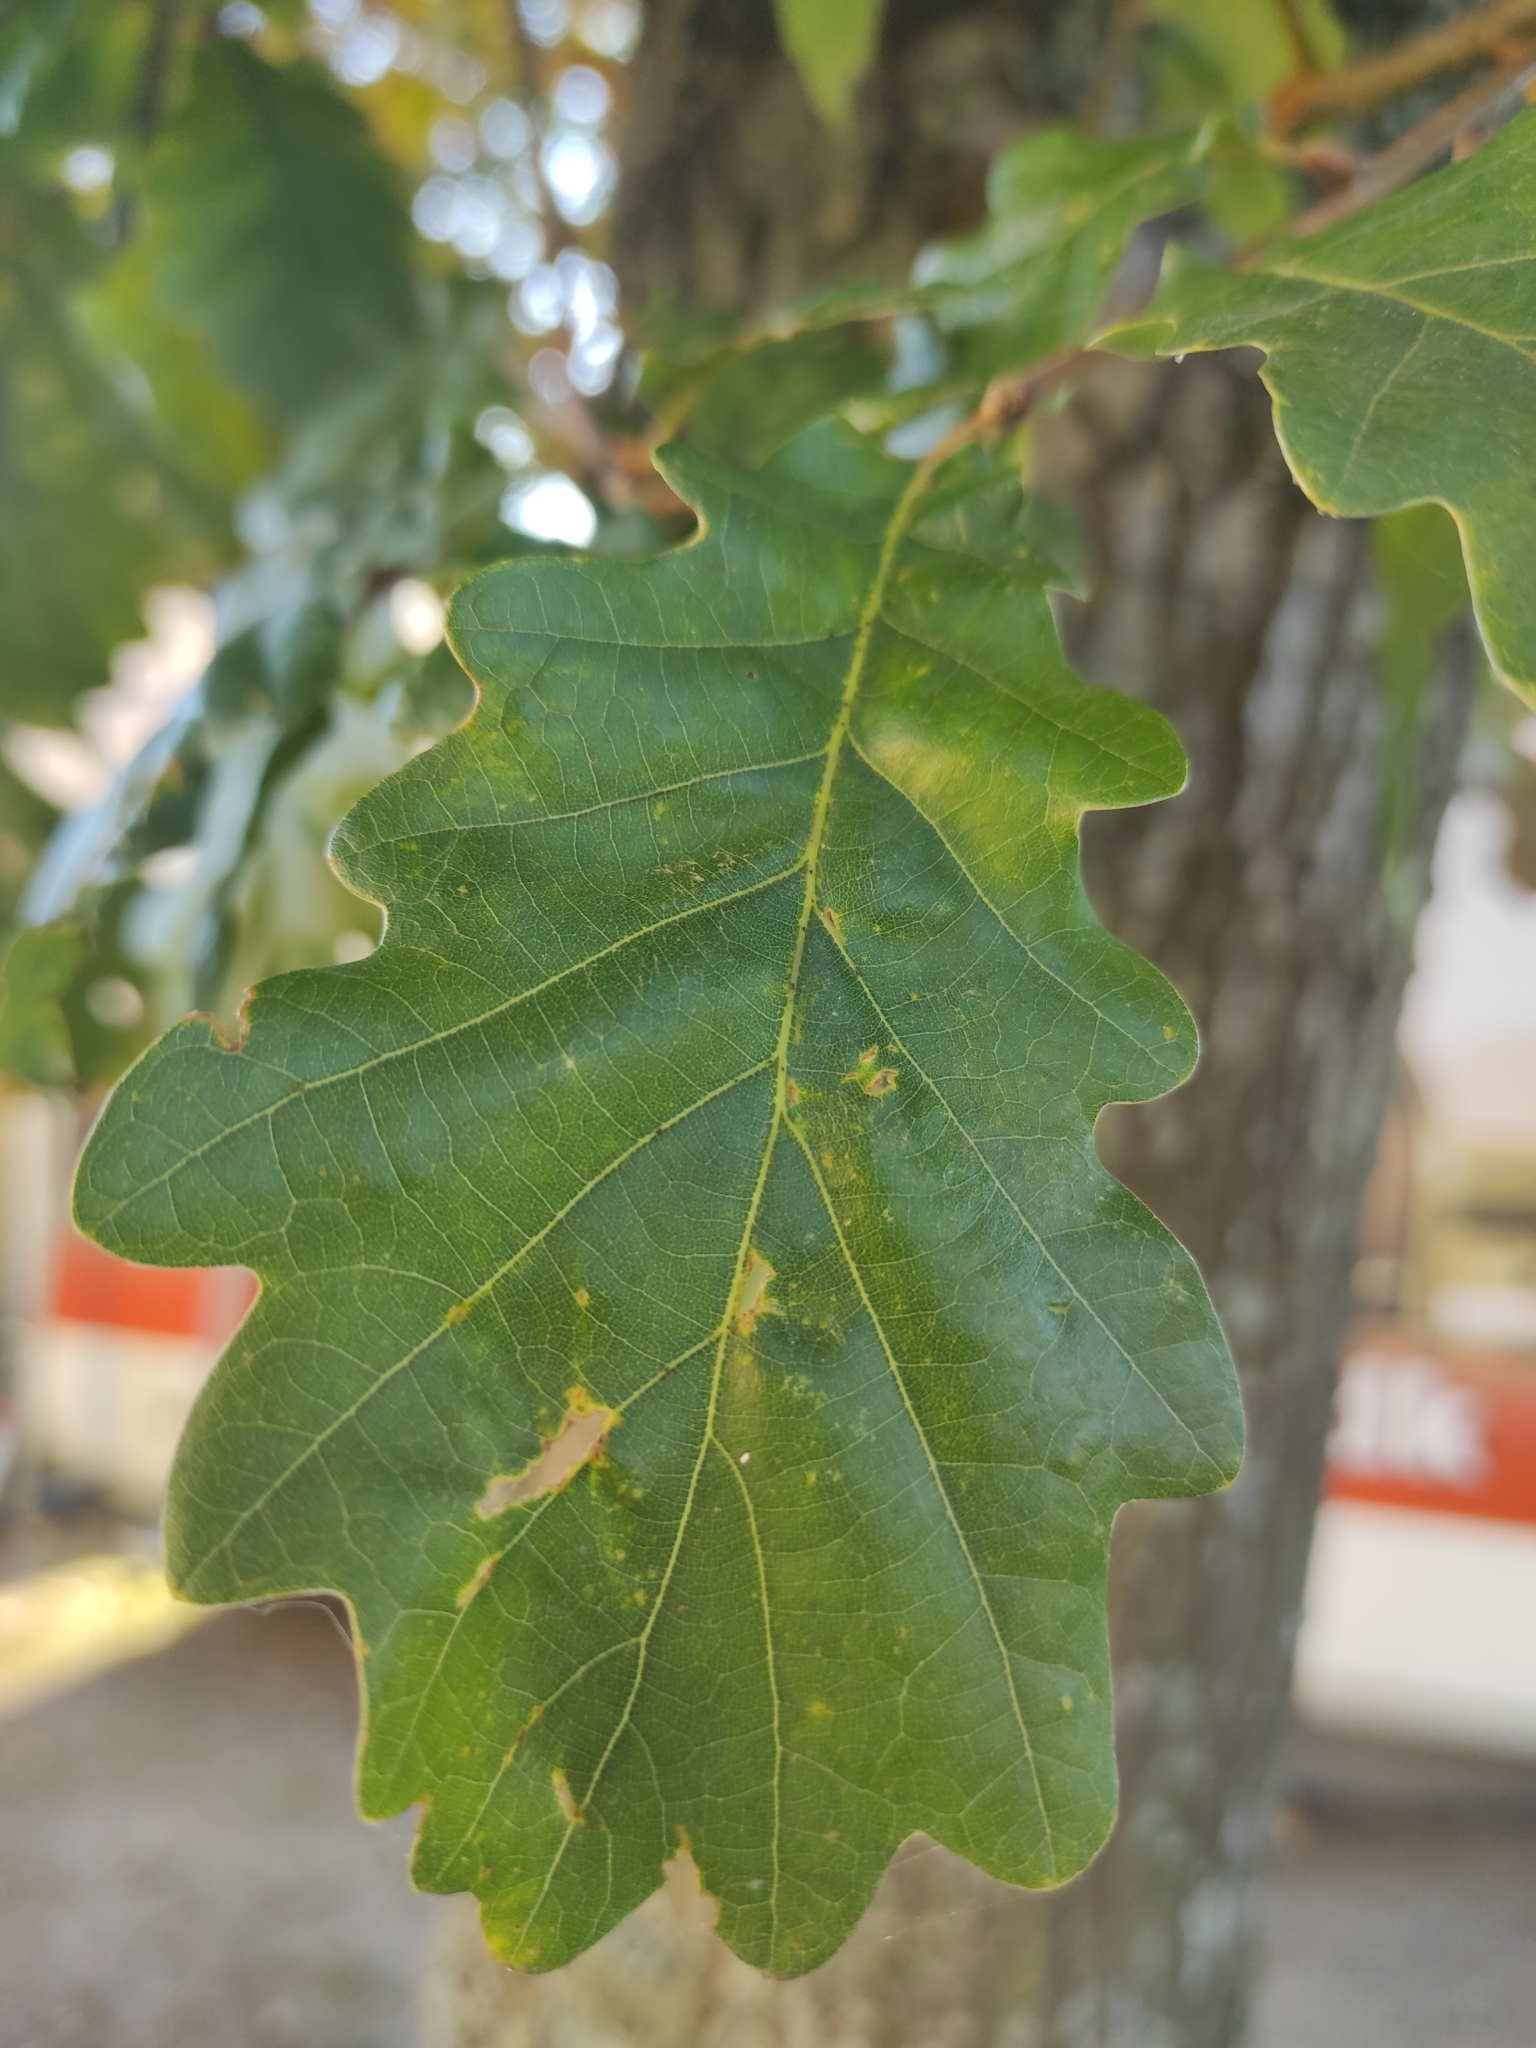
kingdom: Plantae
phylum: Tracheophyta
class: Magnoliopsida
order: Fagales
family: Fagaceae
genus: Quercus
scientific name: Quercus robur
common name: Pedunculate oak
